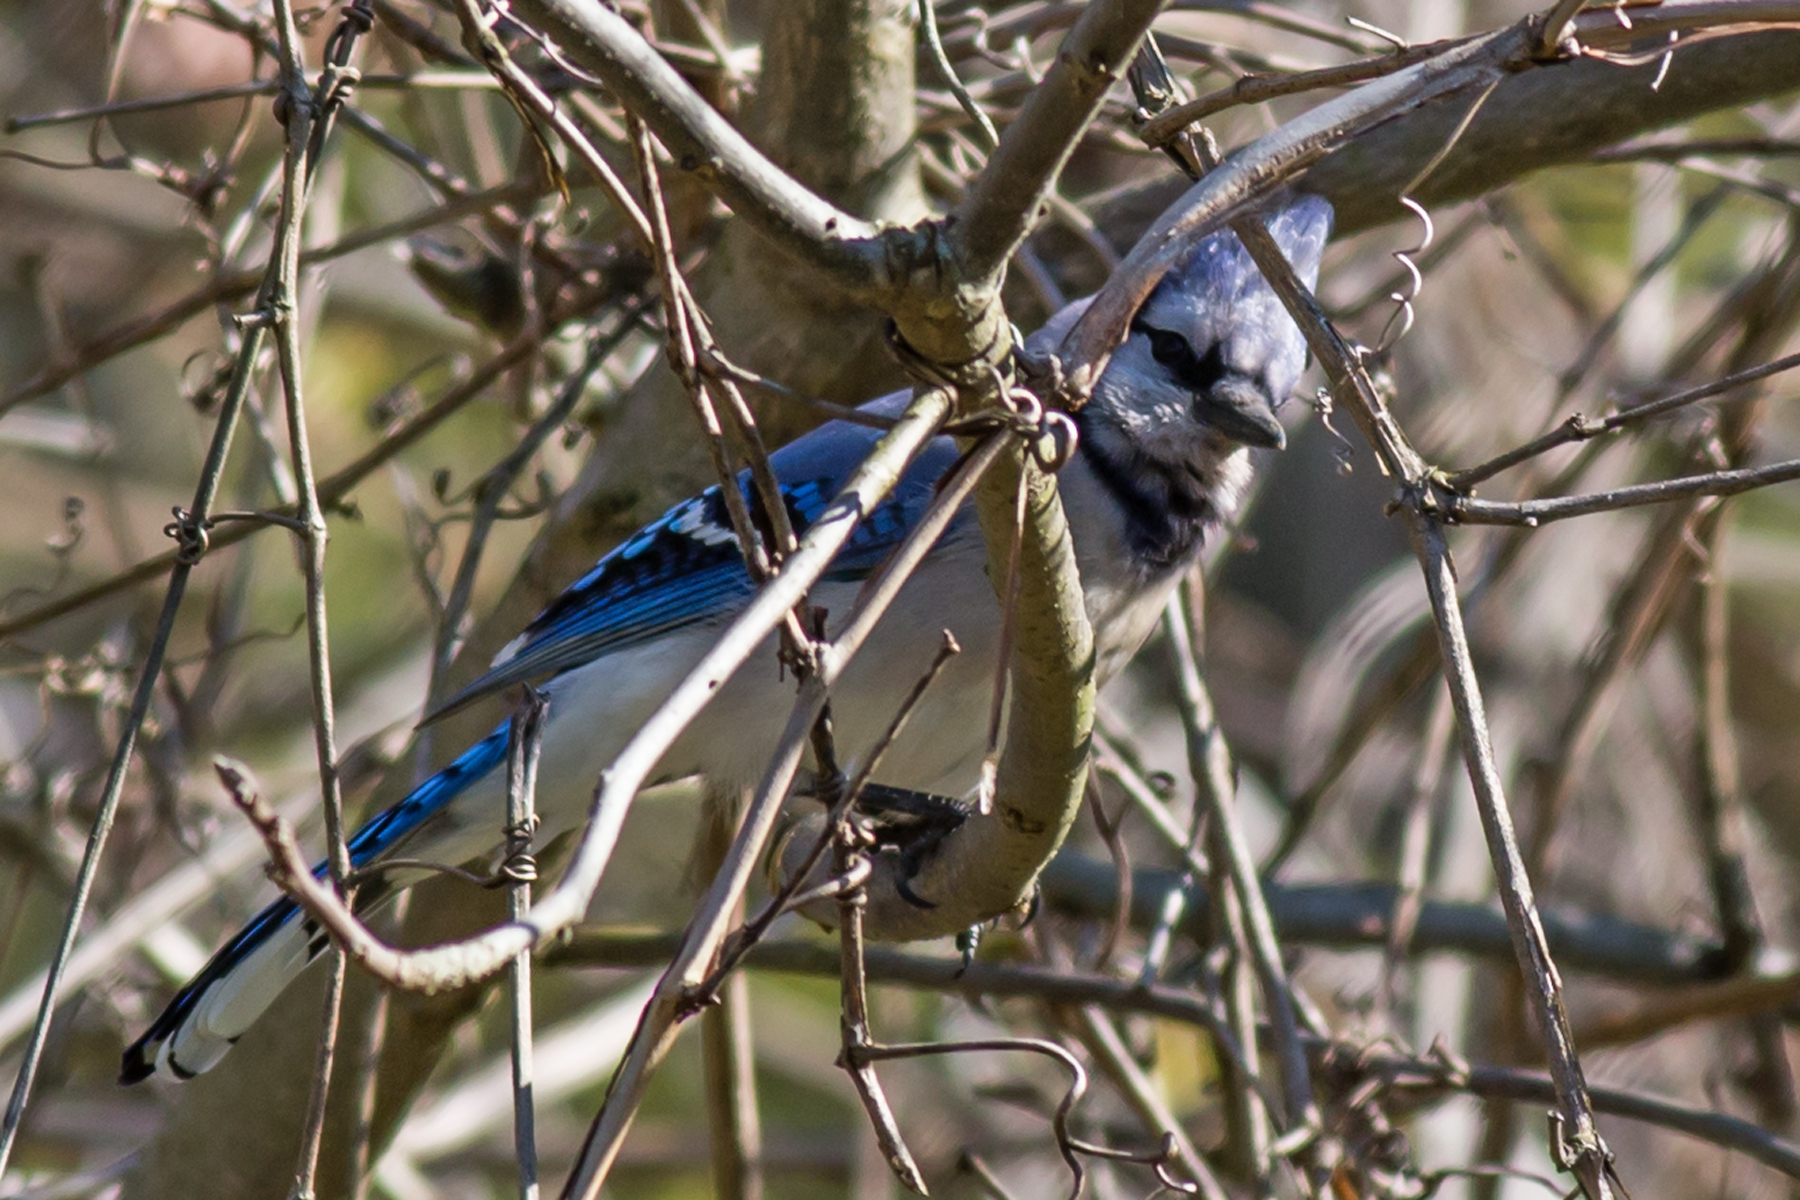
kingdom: Animalia
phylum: Chordata
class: Aves
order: Passeriformes
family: Corvidae
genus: Cyanocitta
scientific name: Cyanocitta cristata
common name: Blue jay
